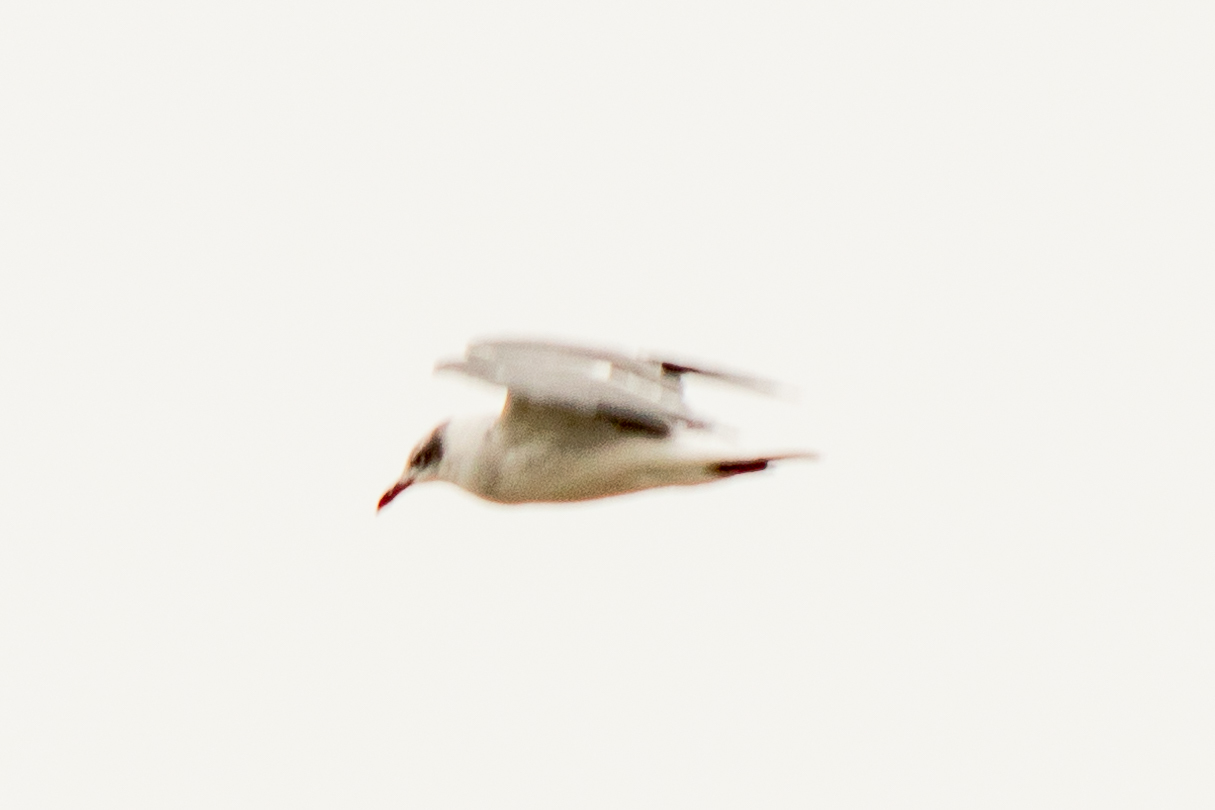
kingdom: Animalia
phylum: Chordata
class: Aves
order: Charadriiformes
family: Laridae
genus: Leucophaeus
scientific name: Leucophaeus atricilla
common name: Laughing gull
